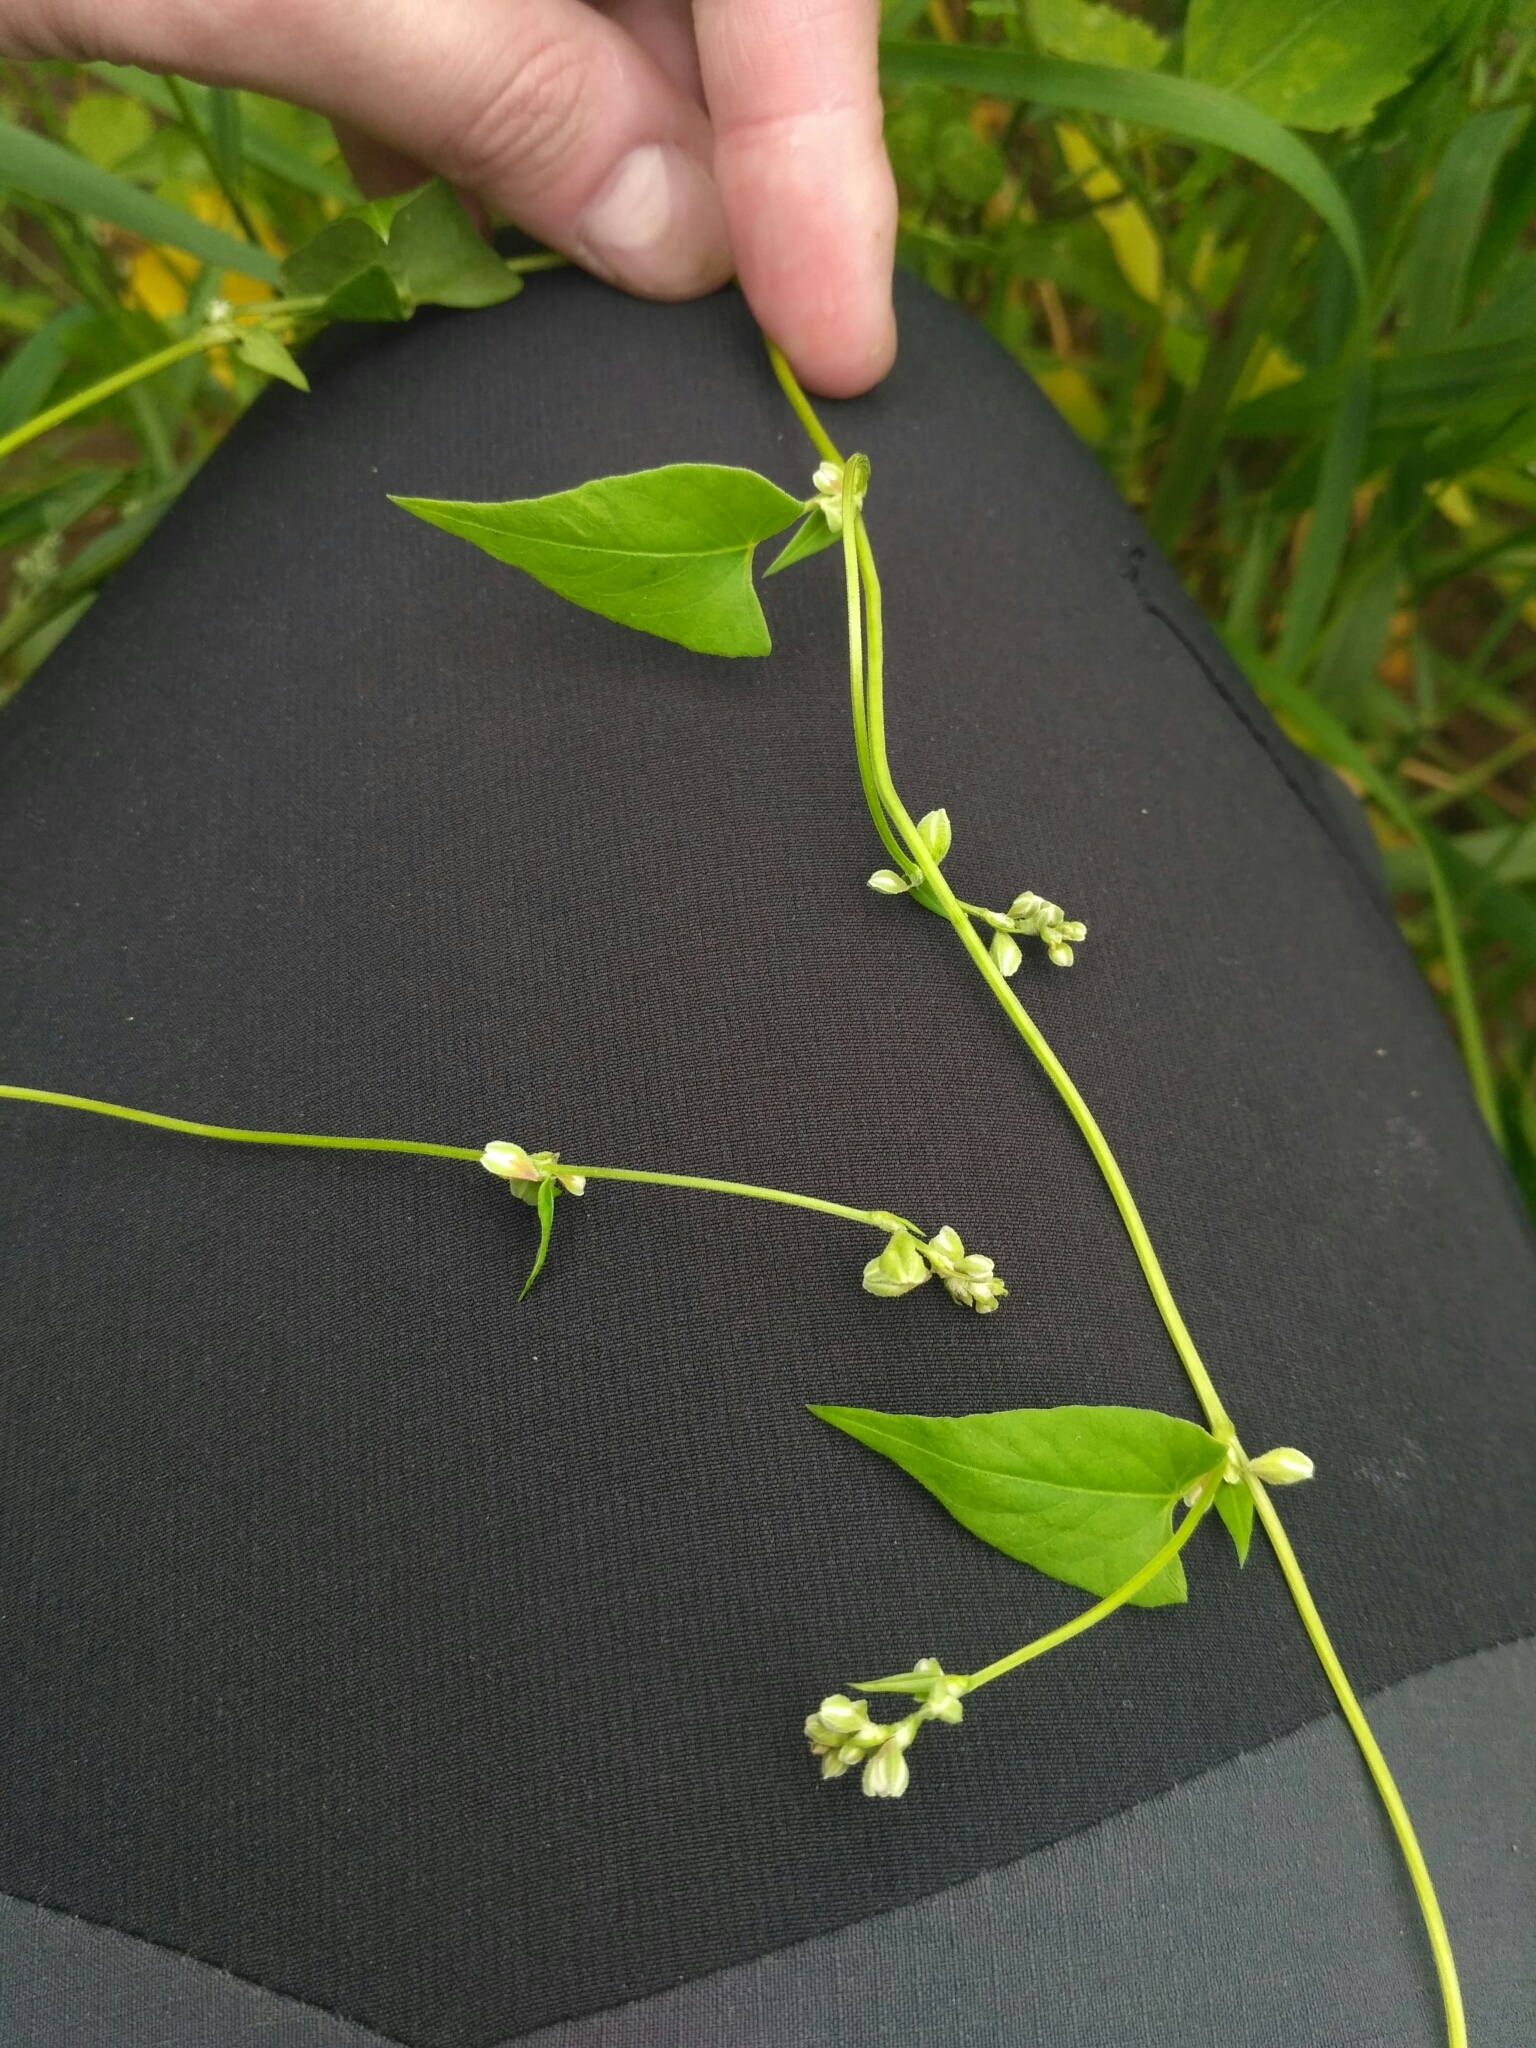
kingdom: Plantae
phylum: Tracheophyta
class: Magnoliopsida
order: Caryophyllales
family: Polygonaceae
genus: Fallopia
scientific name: Fallopia convolvulus
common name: Black bindweed
